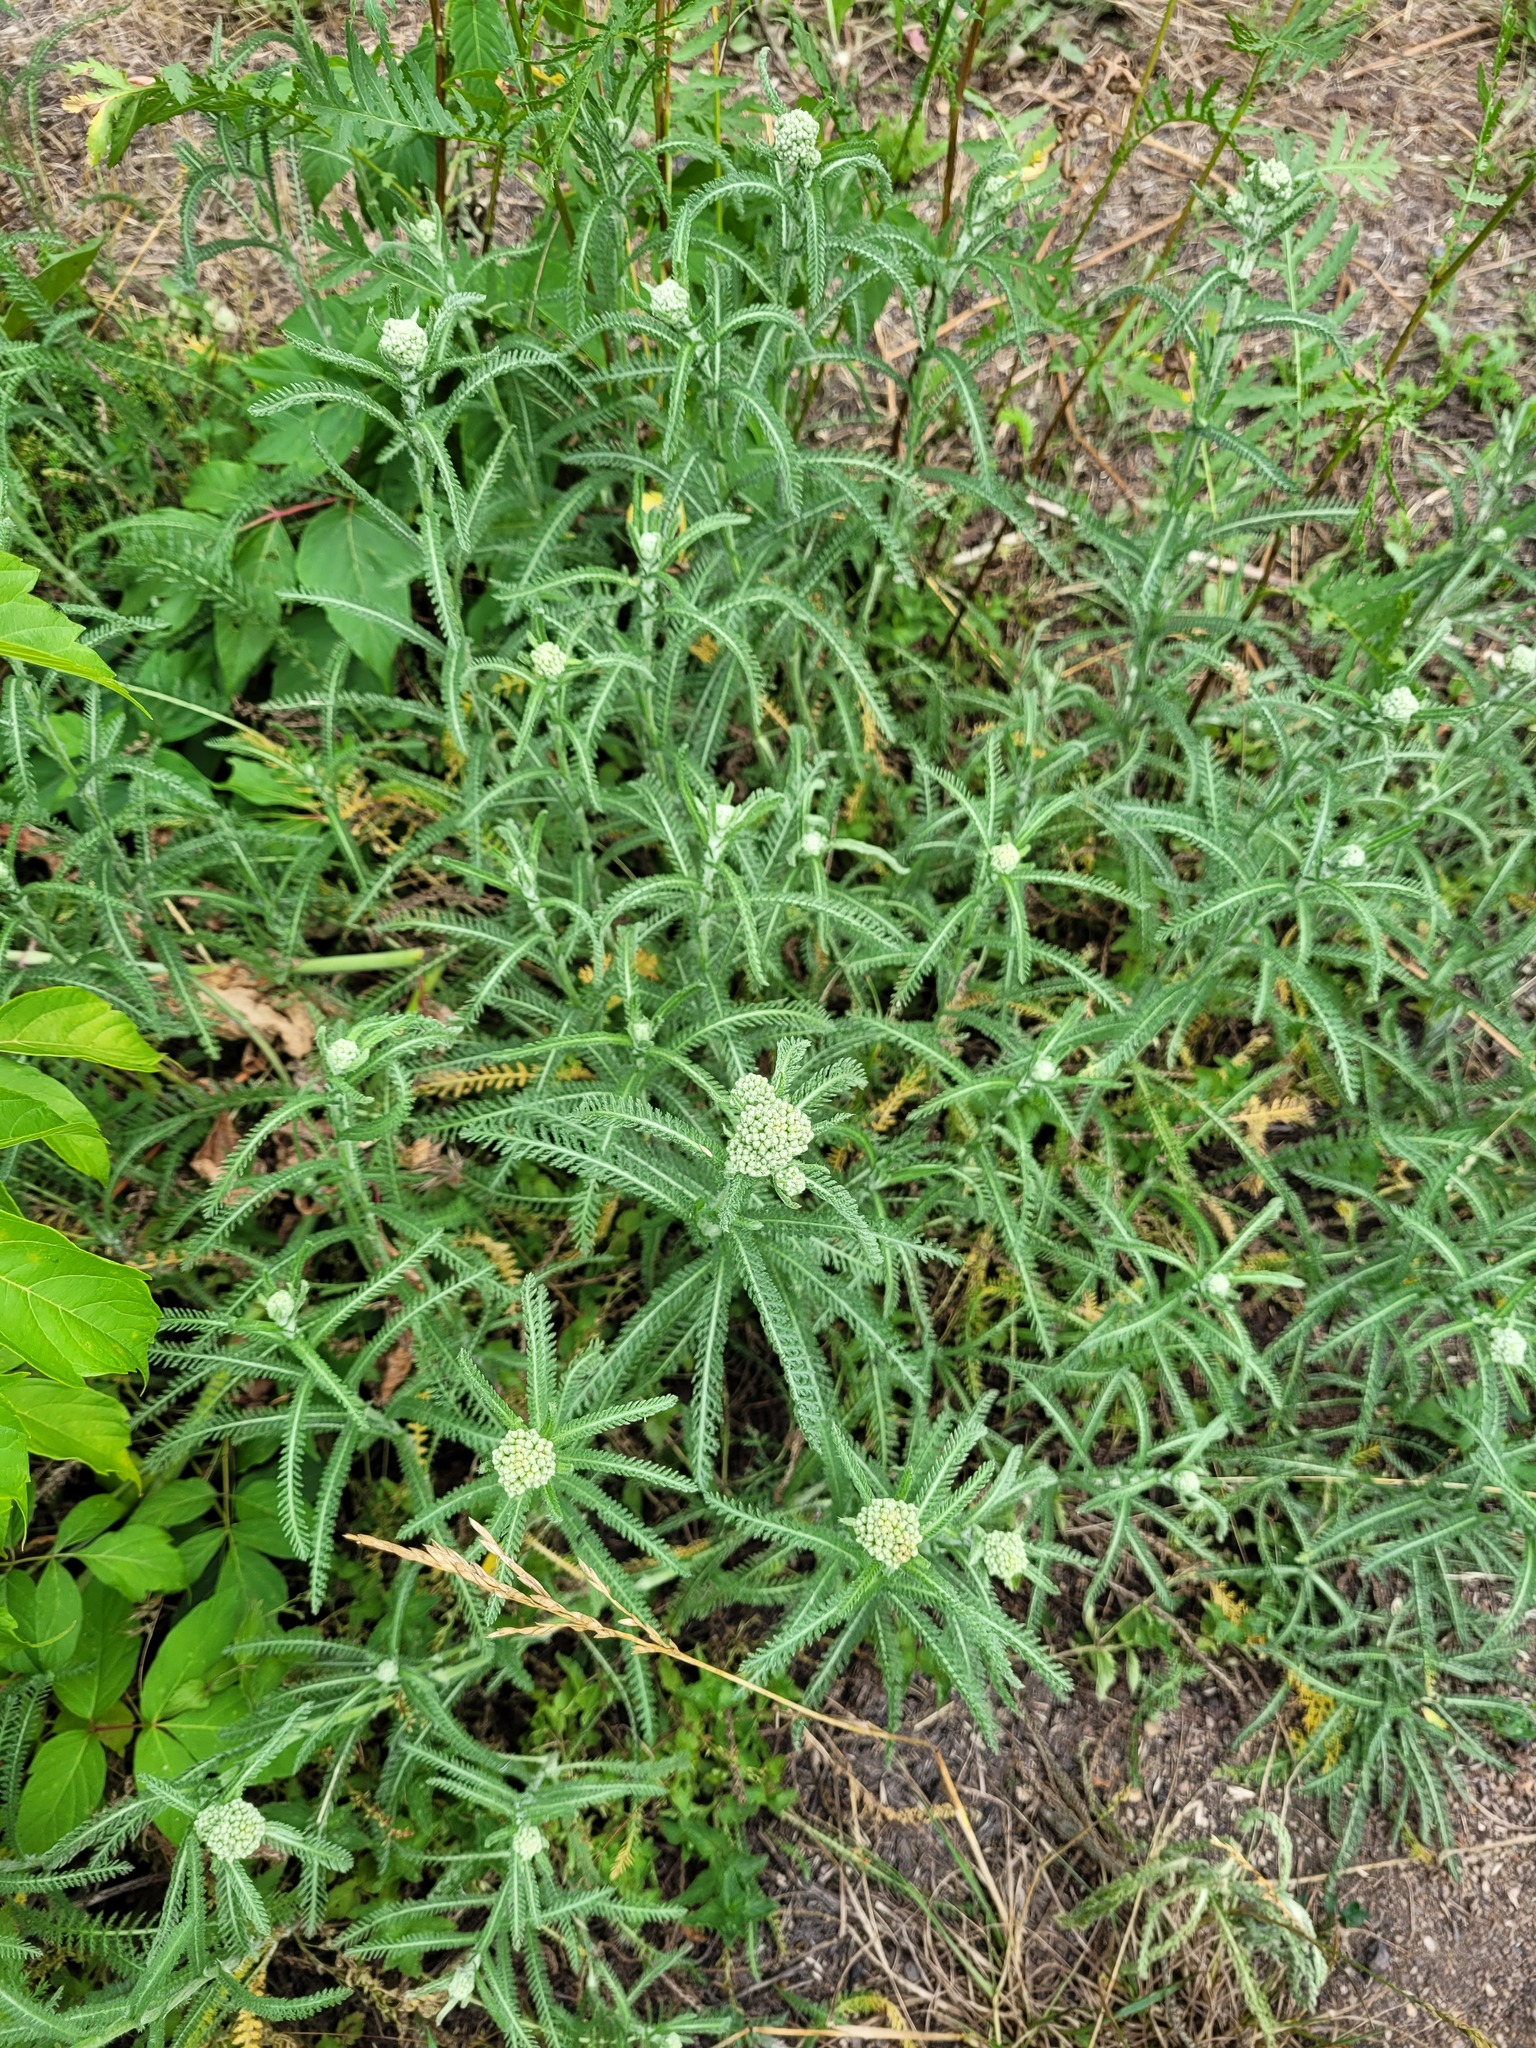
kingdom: Plantae
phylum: Tracheophyta
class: Magnoliopsida
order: Asterales
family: Asteraceae
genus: Achillea
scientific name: Achillea millefolium
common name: Yarrow
